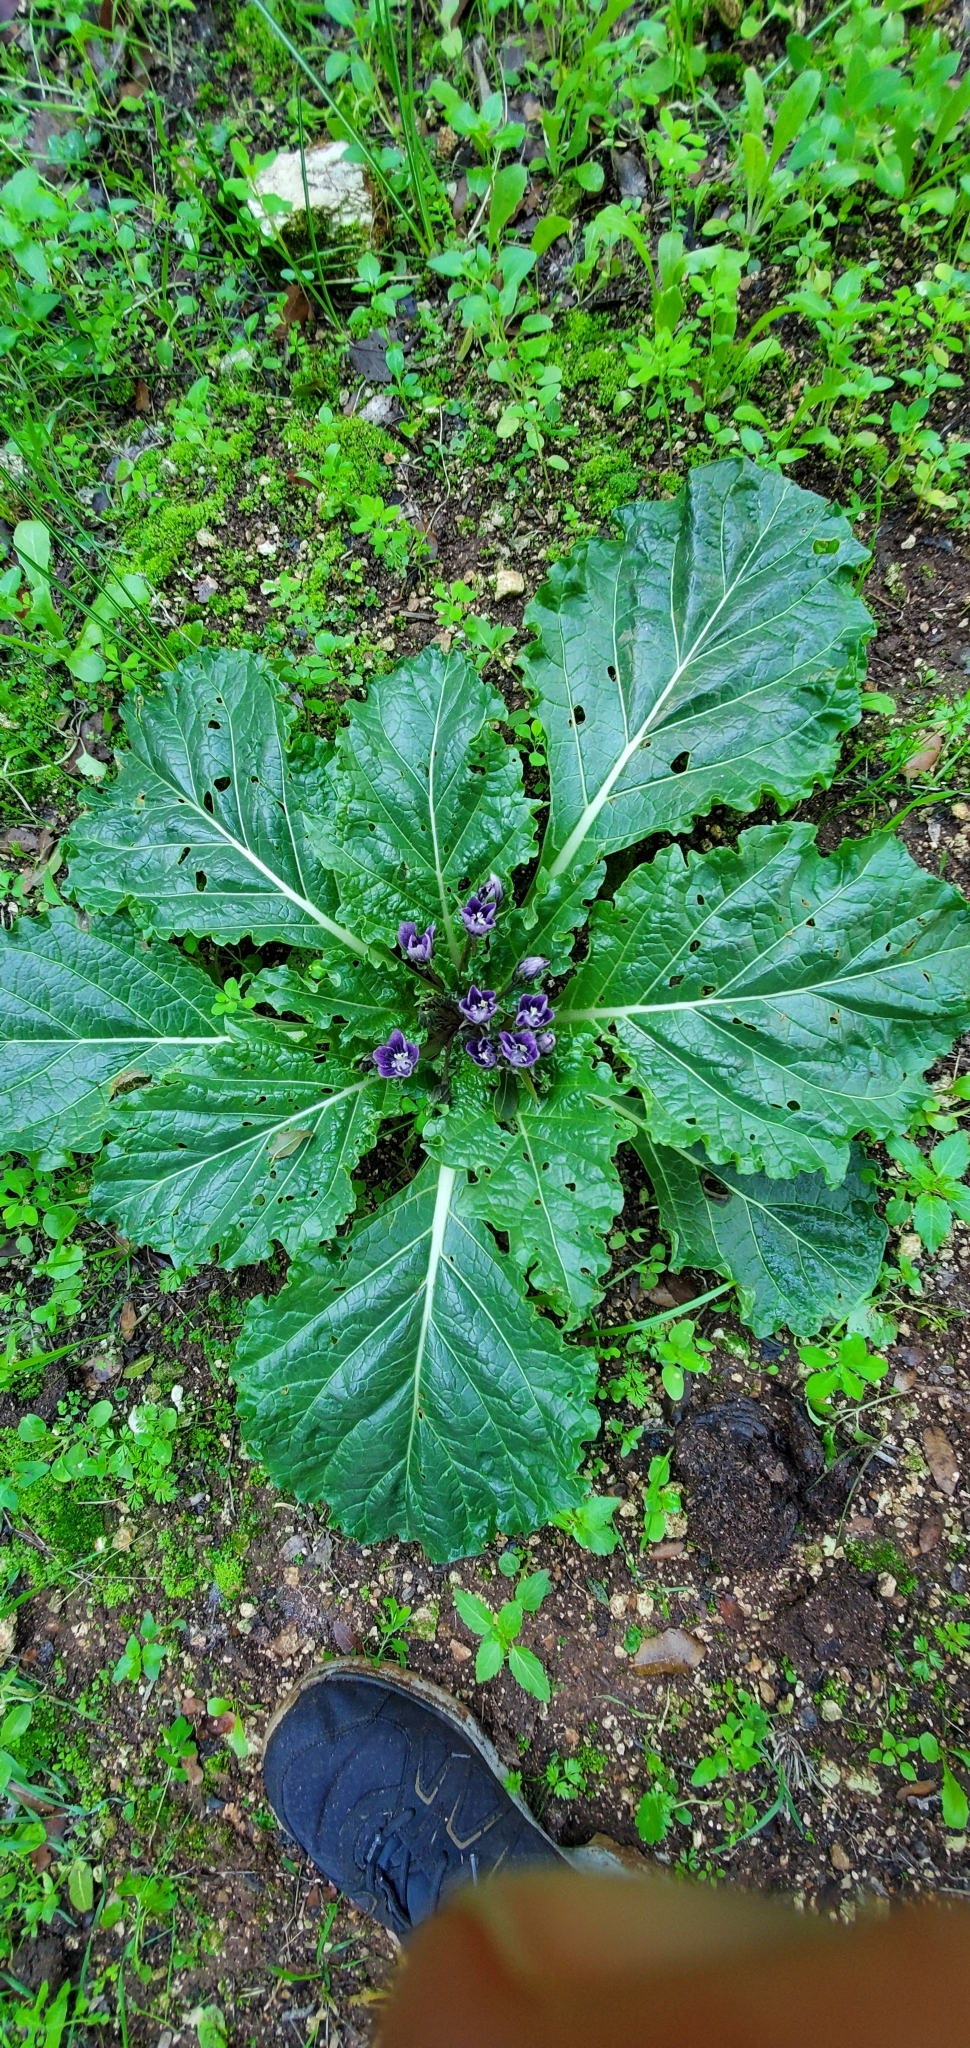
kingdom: Plantae
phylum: Tracheophyta
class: Magnoliopsida
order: Solanales
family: Solanaceae
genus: Mandragora
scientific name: Mandragora officinarum
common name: Mandrake
